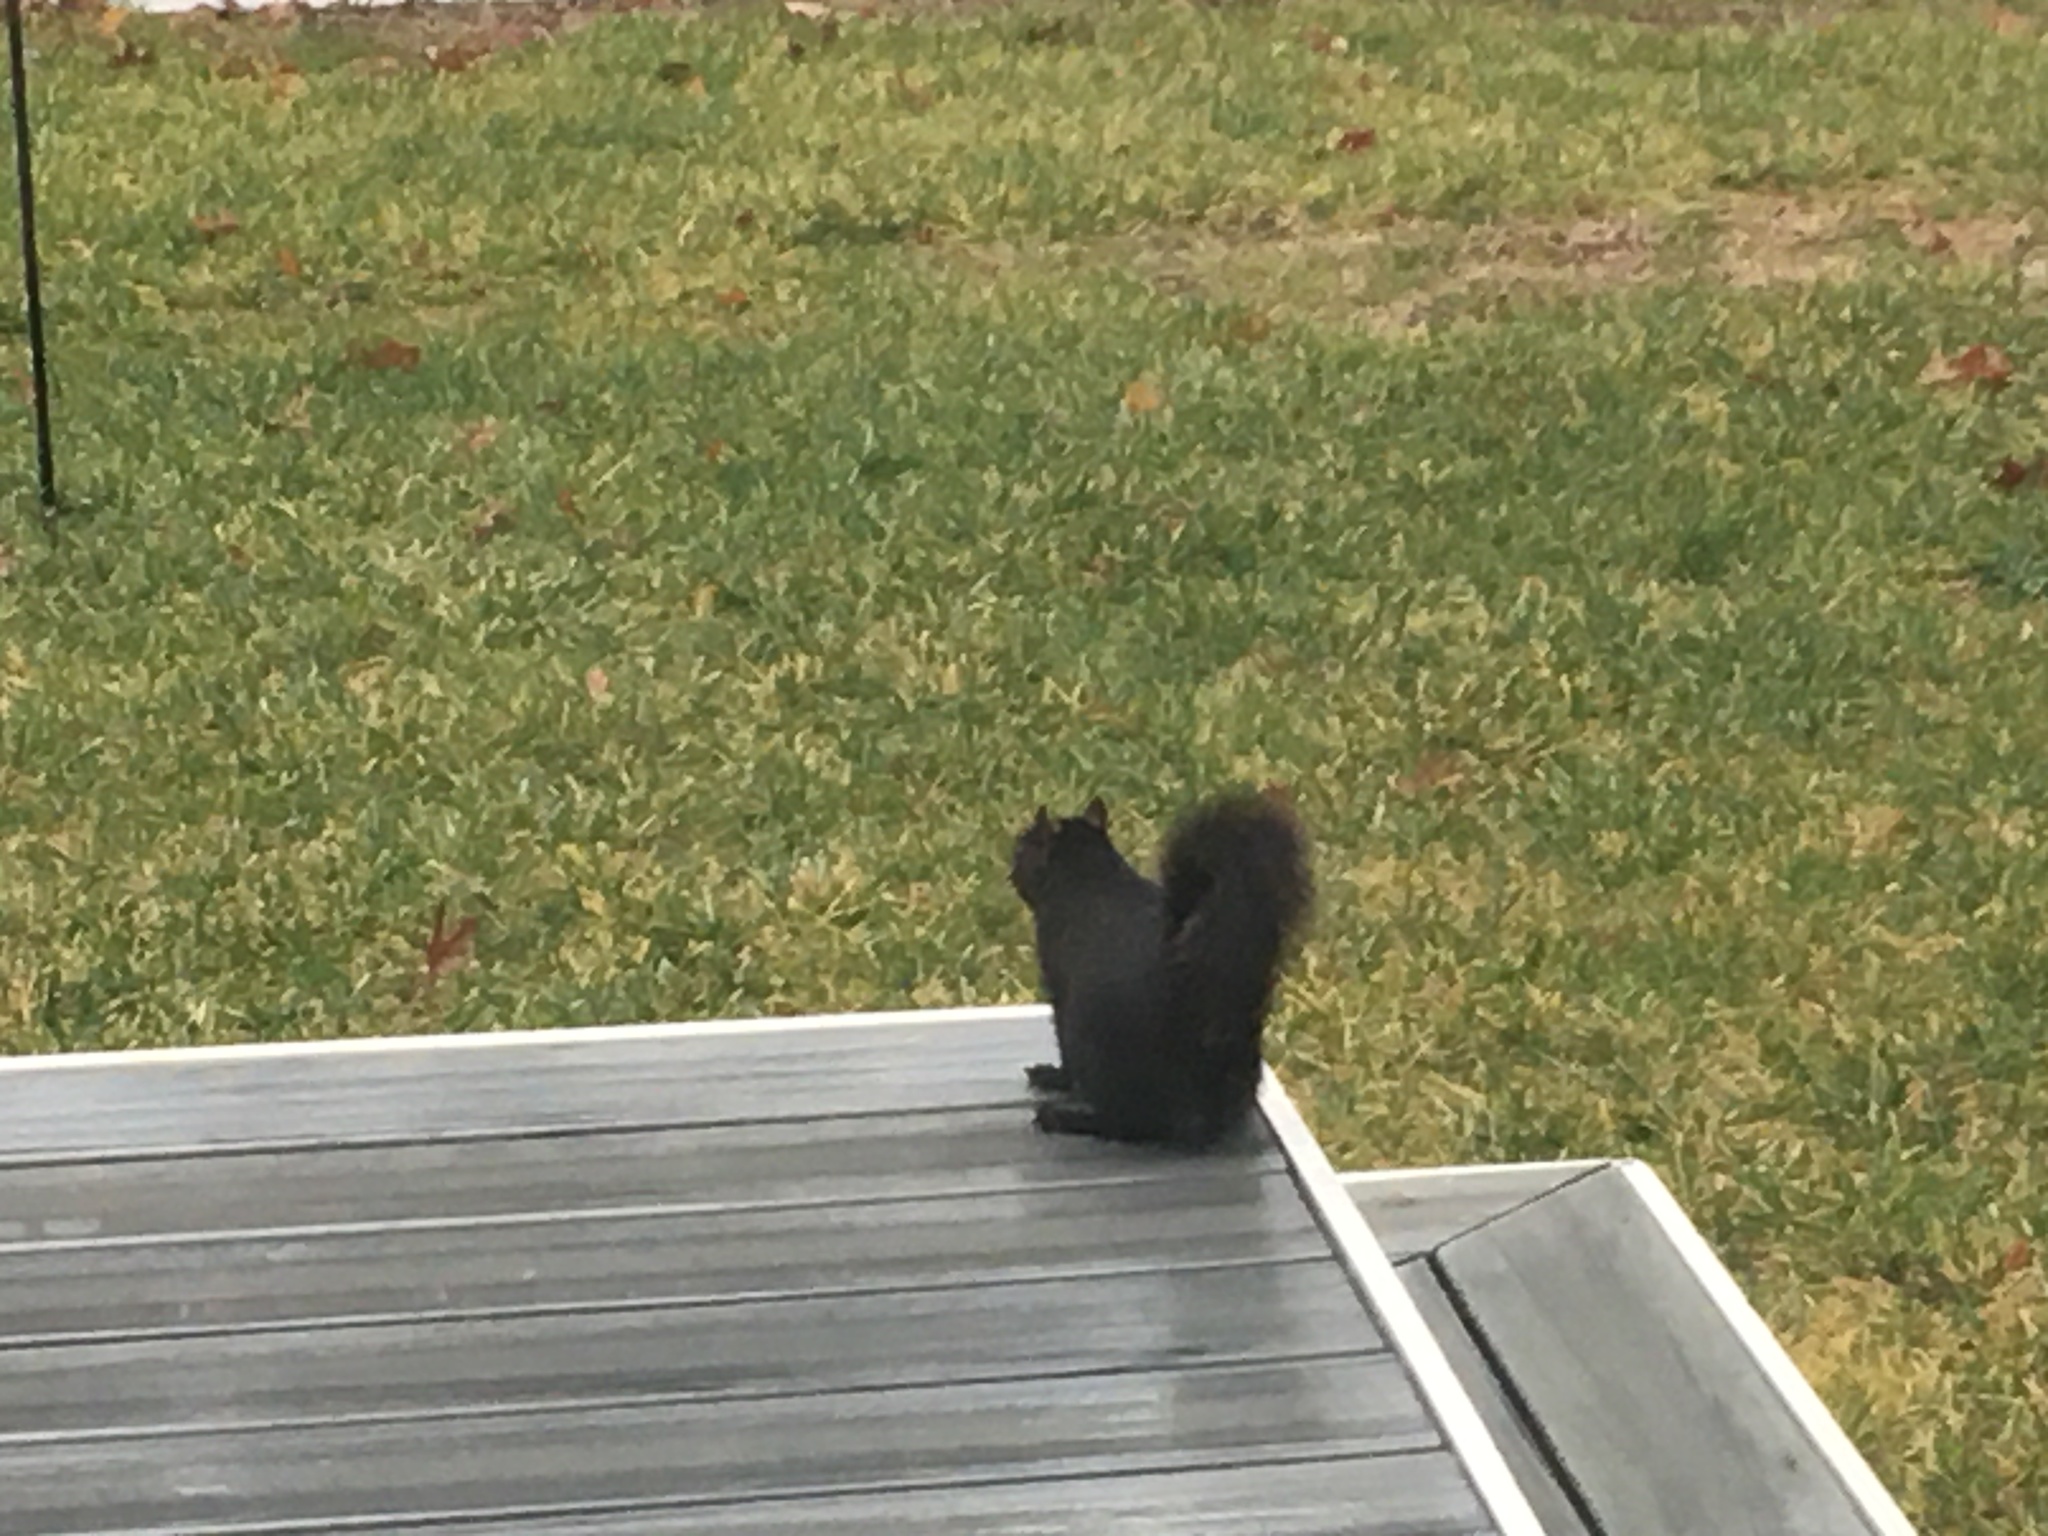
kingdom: Animalia
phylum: Chordata
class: Mammalia
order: Rodentia
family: Sciuridae
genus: Sciurus
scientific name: Sciurus carolinensis
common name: Eastern gray squirrel
